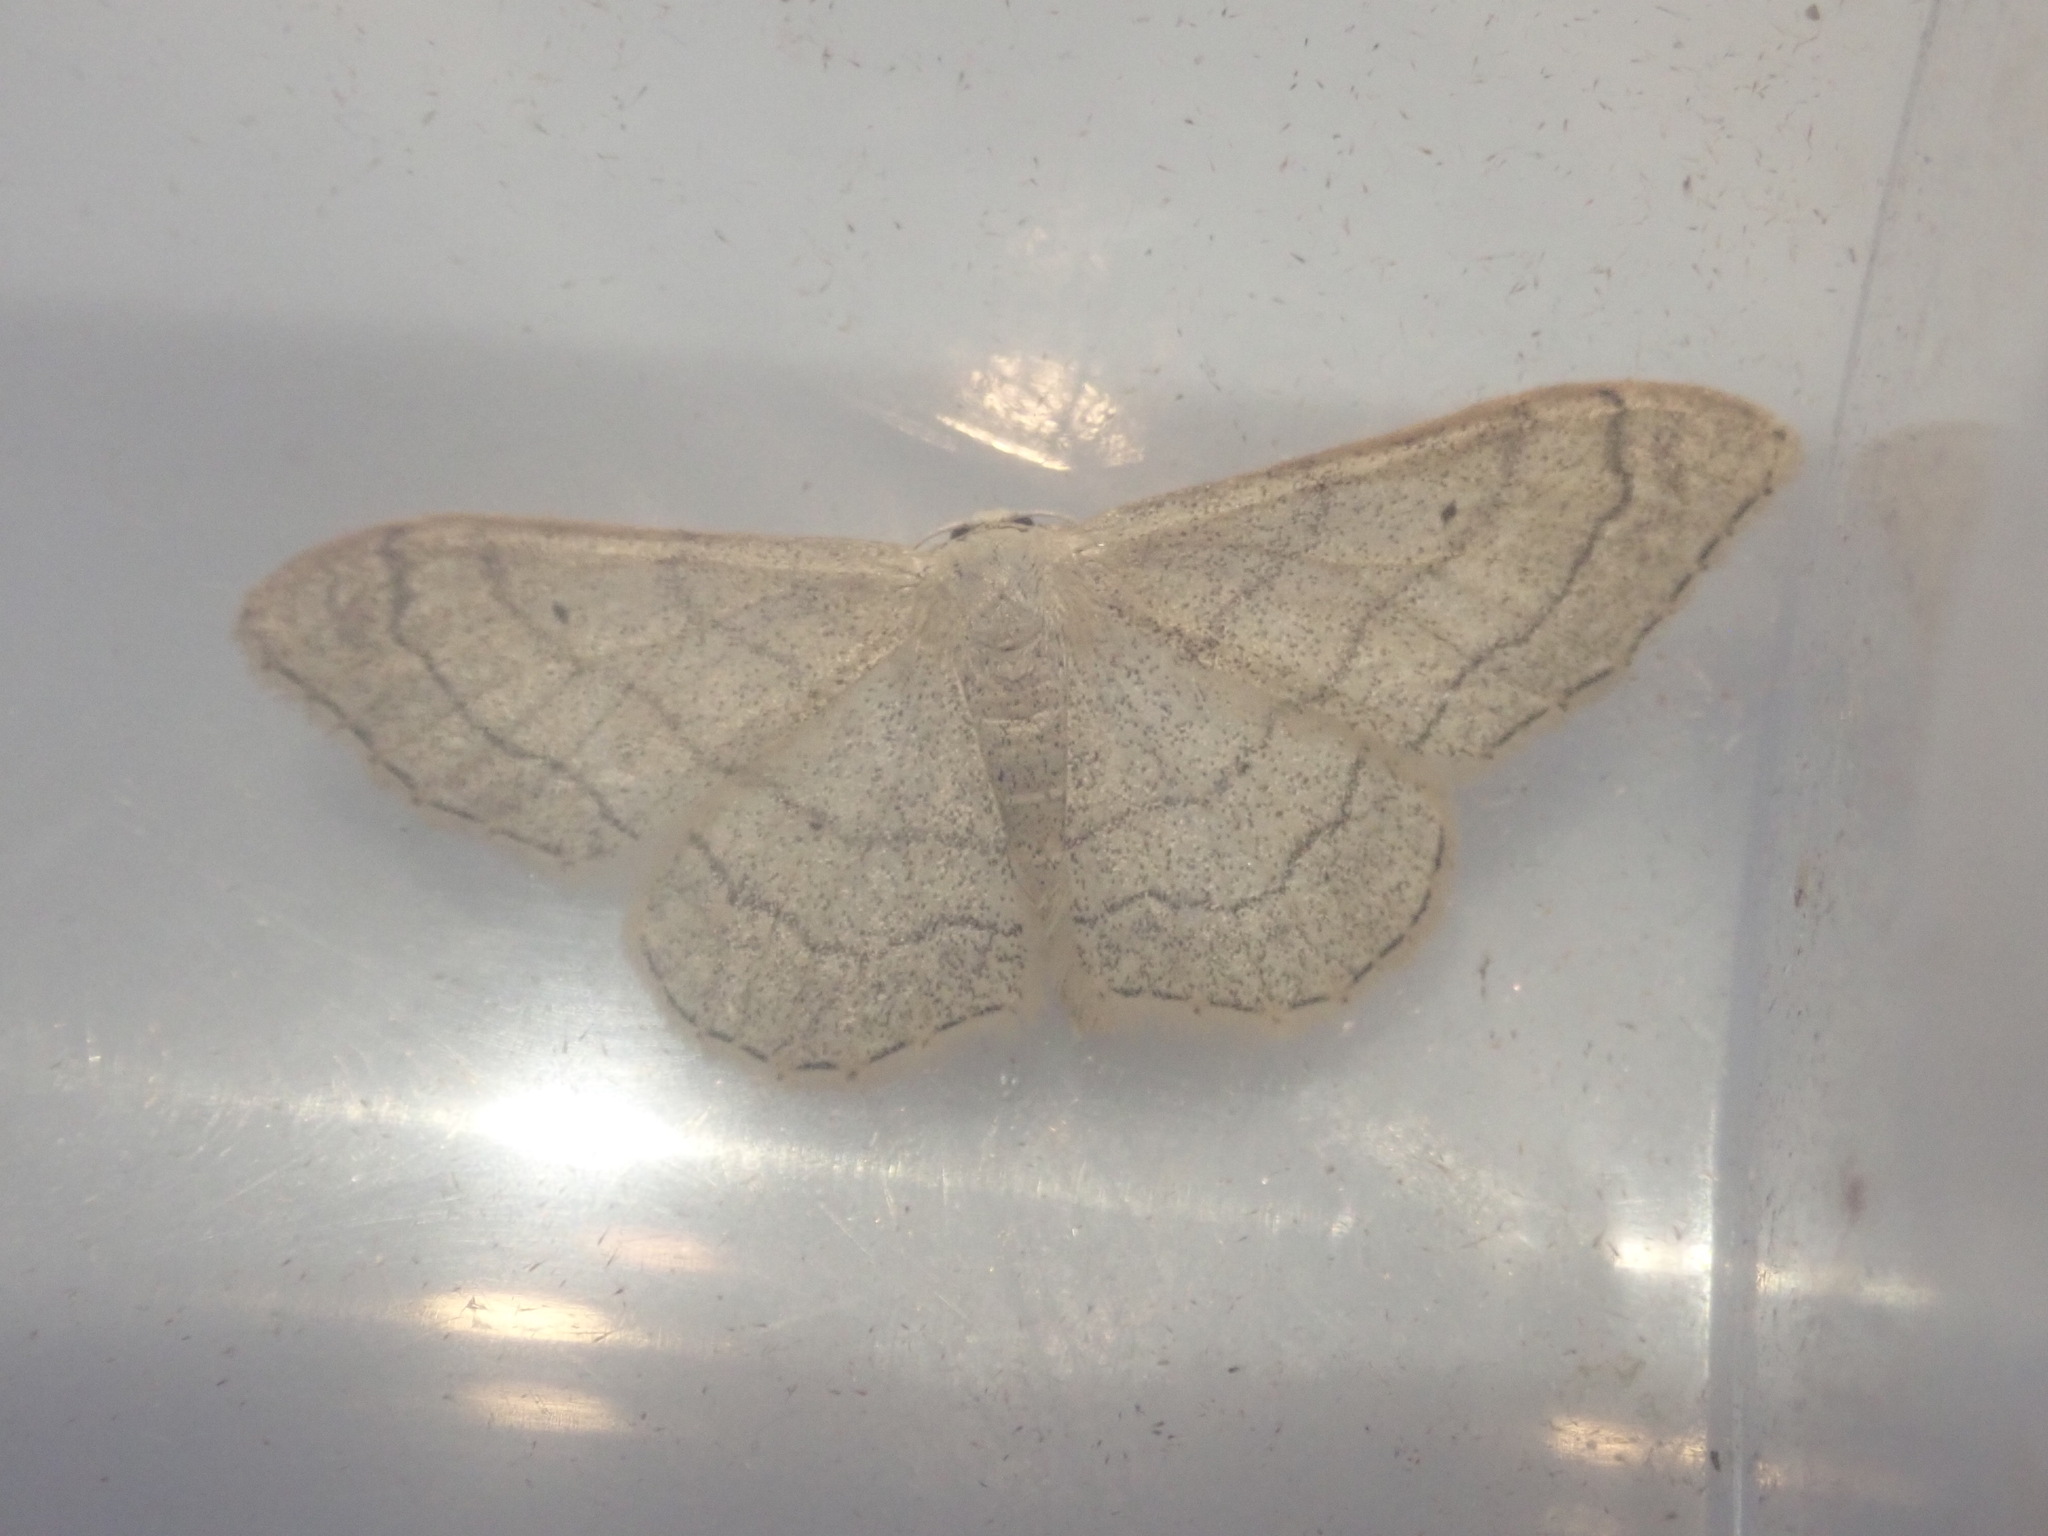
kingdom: Animalia
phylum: Arthropoda
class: Insecta
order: Lepidoptera
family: Geometridae
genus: Idaea
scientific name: Idaea aversata
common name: Riband wave
